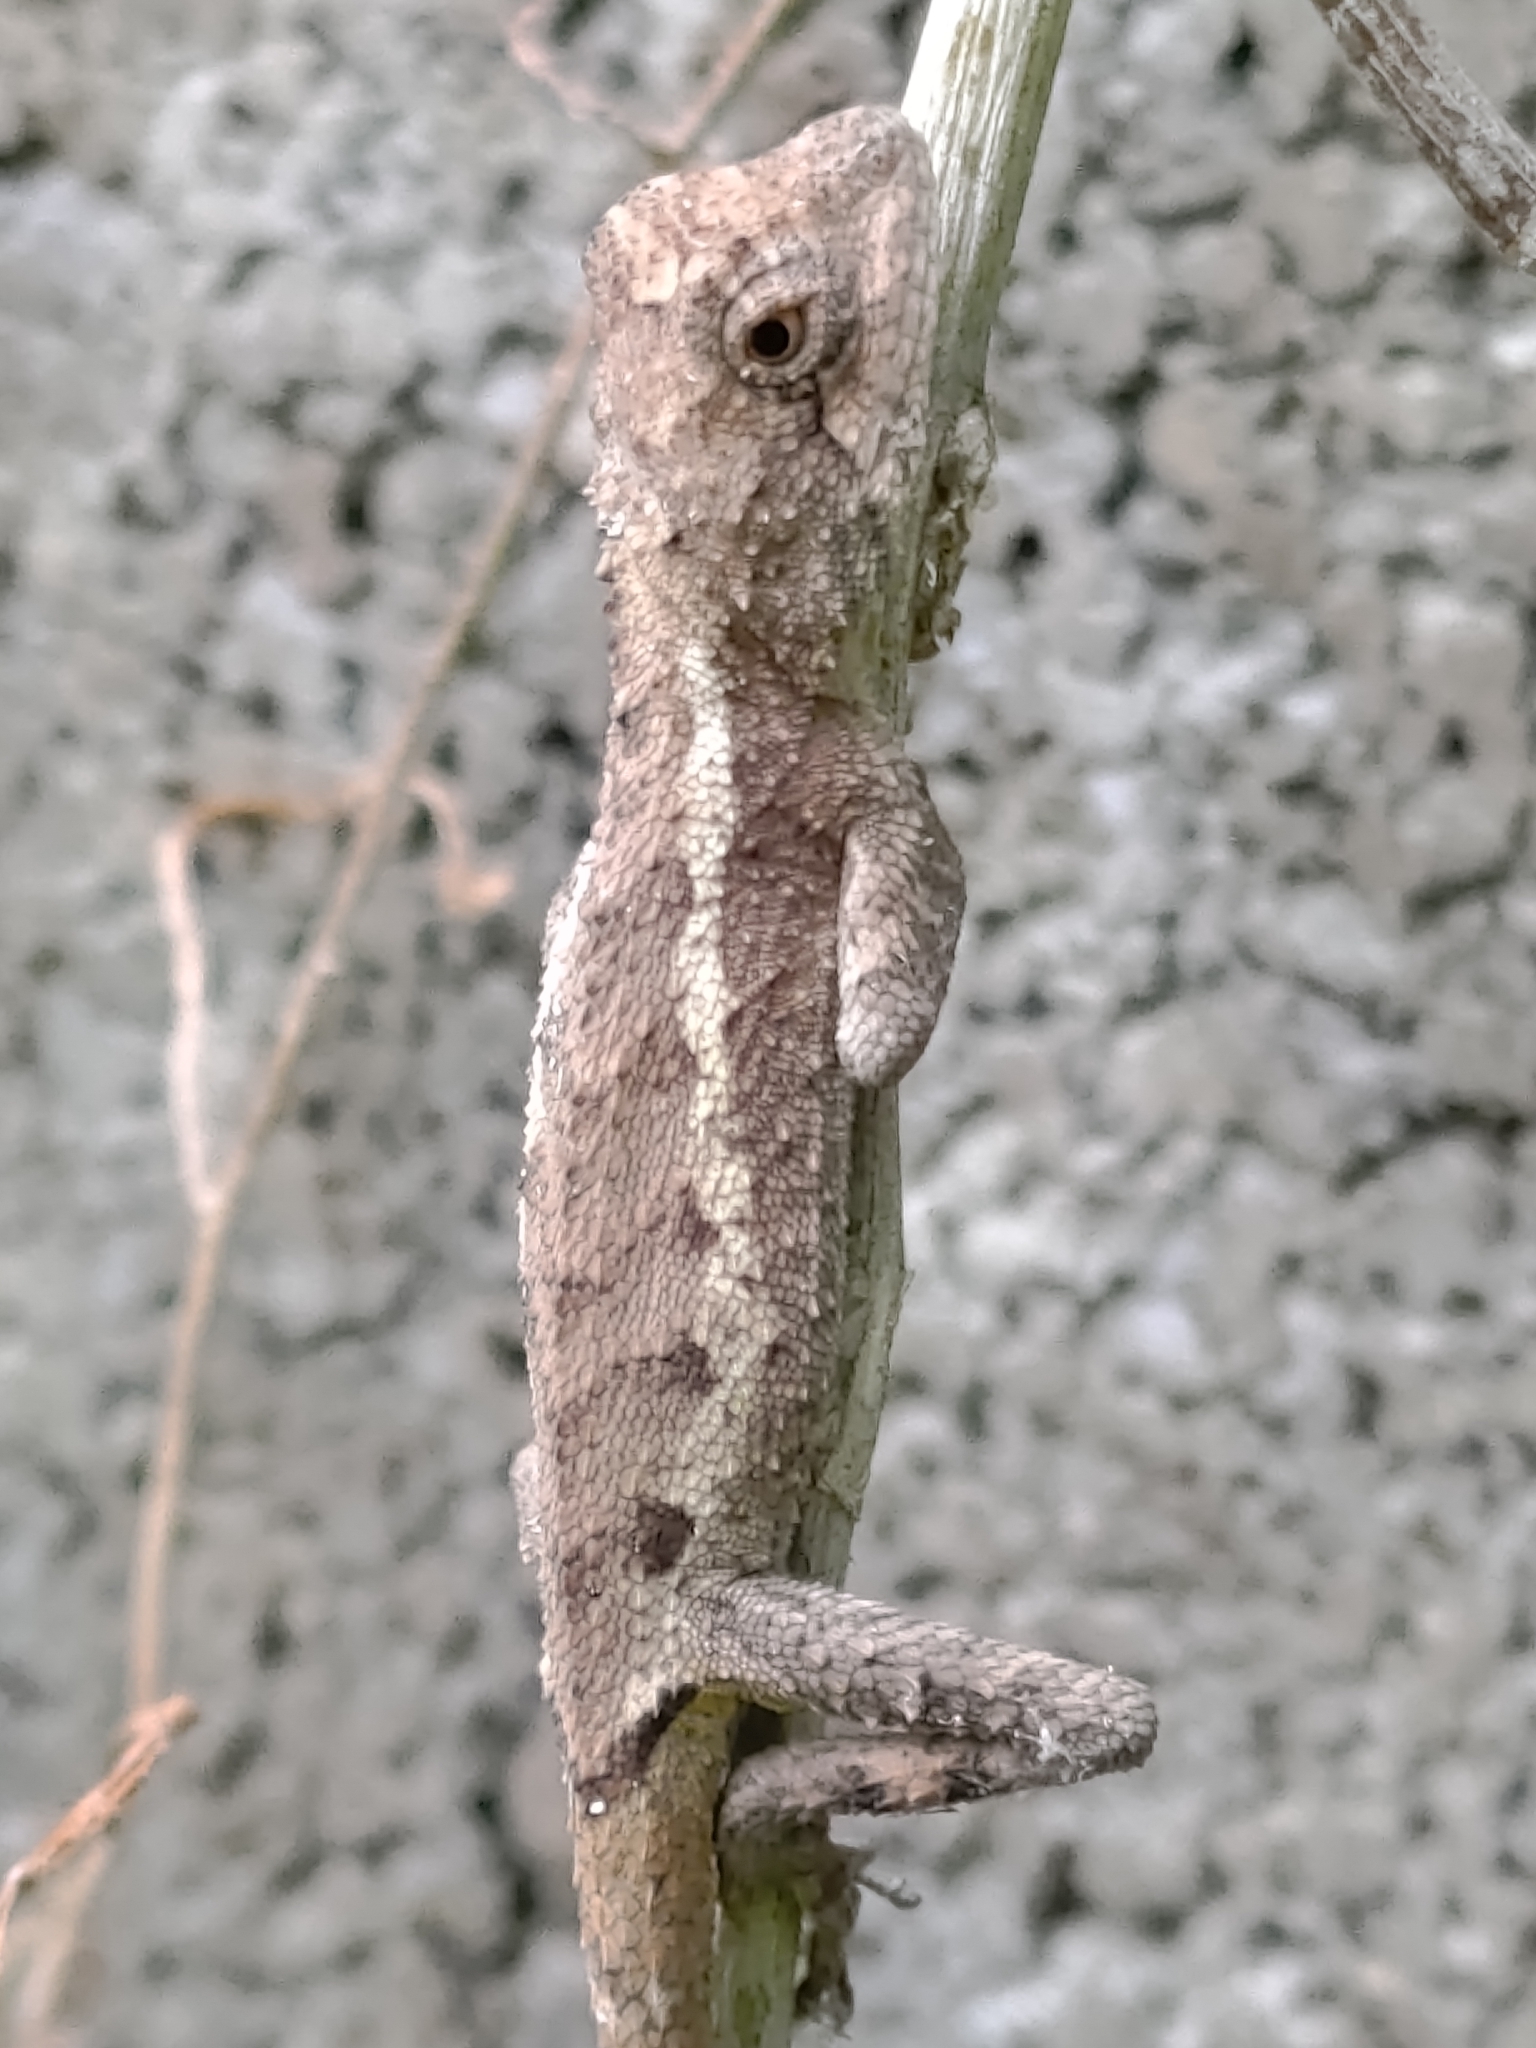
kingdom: Animalia
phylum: Chordata
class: Squamata
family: Agamidae
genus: Diploderma
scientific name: Diploderma swinhonis
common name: Taiwan japalure
